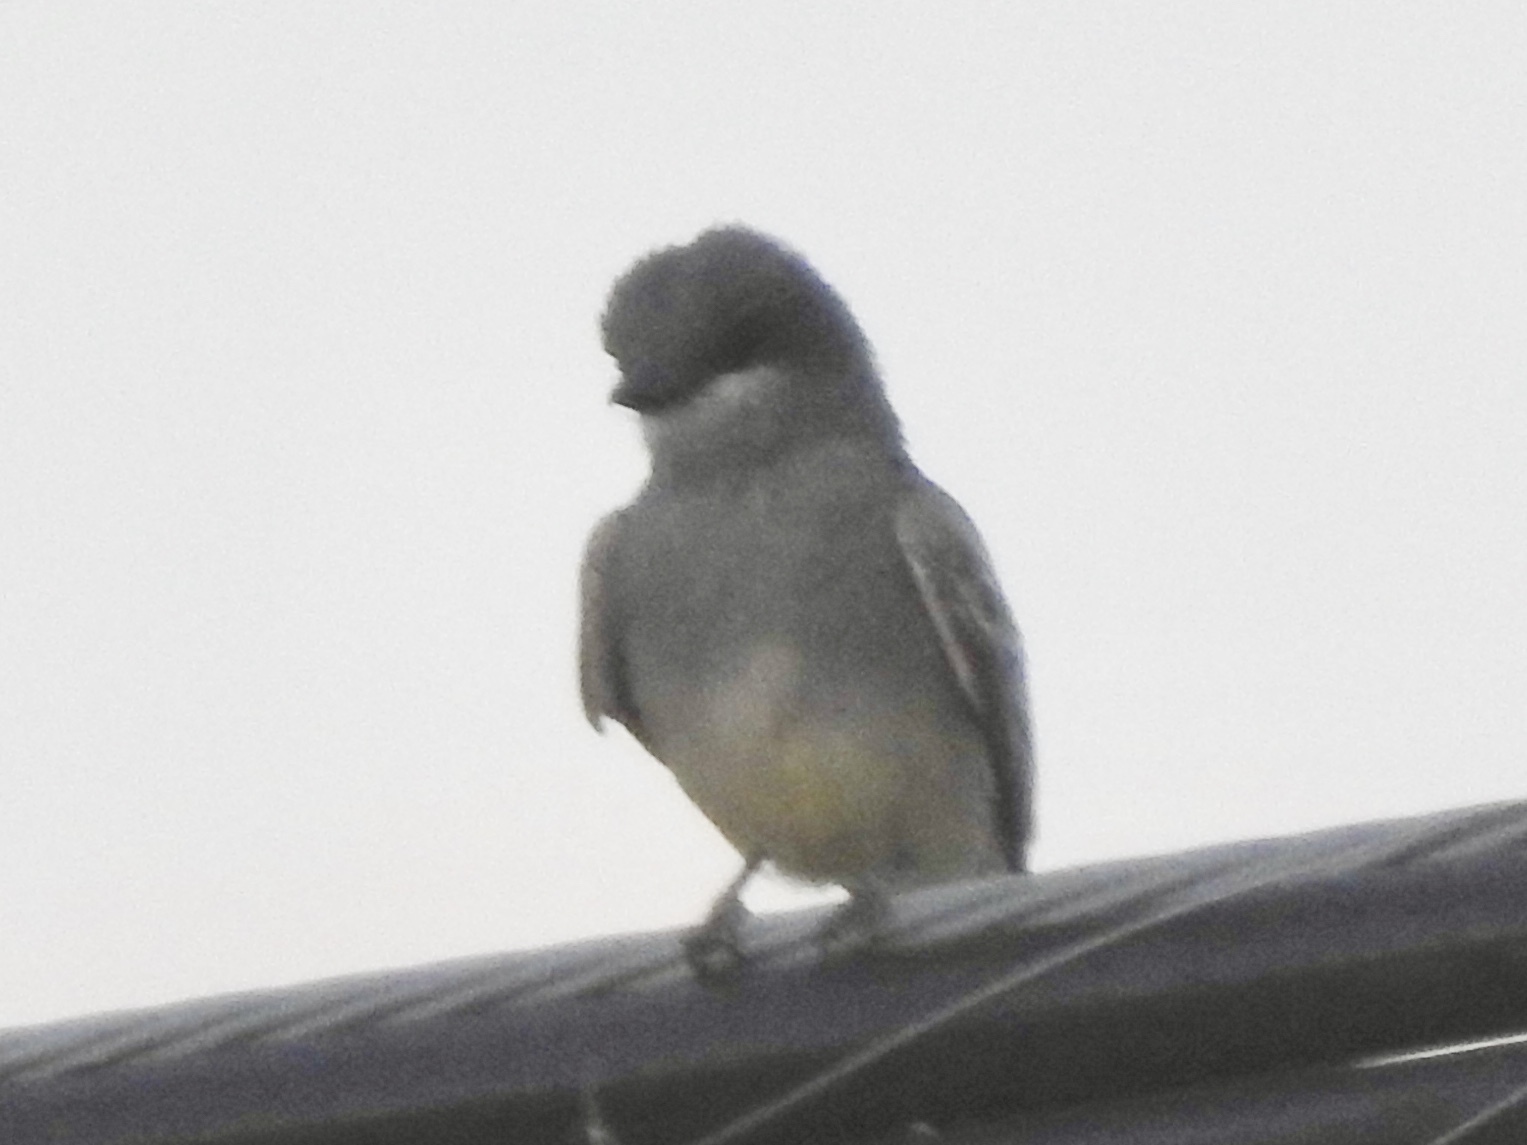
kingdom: Animalia
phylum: Chordata
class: Aves
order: Passeriformes
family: Tyrannidae
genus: Tyrannus
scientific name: Tyrannus vociferans
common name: Cassin's kingbird
